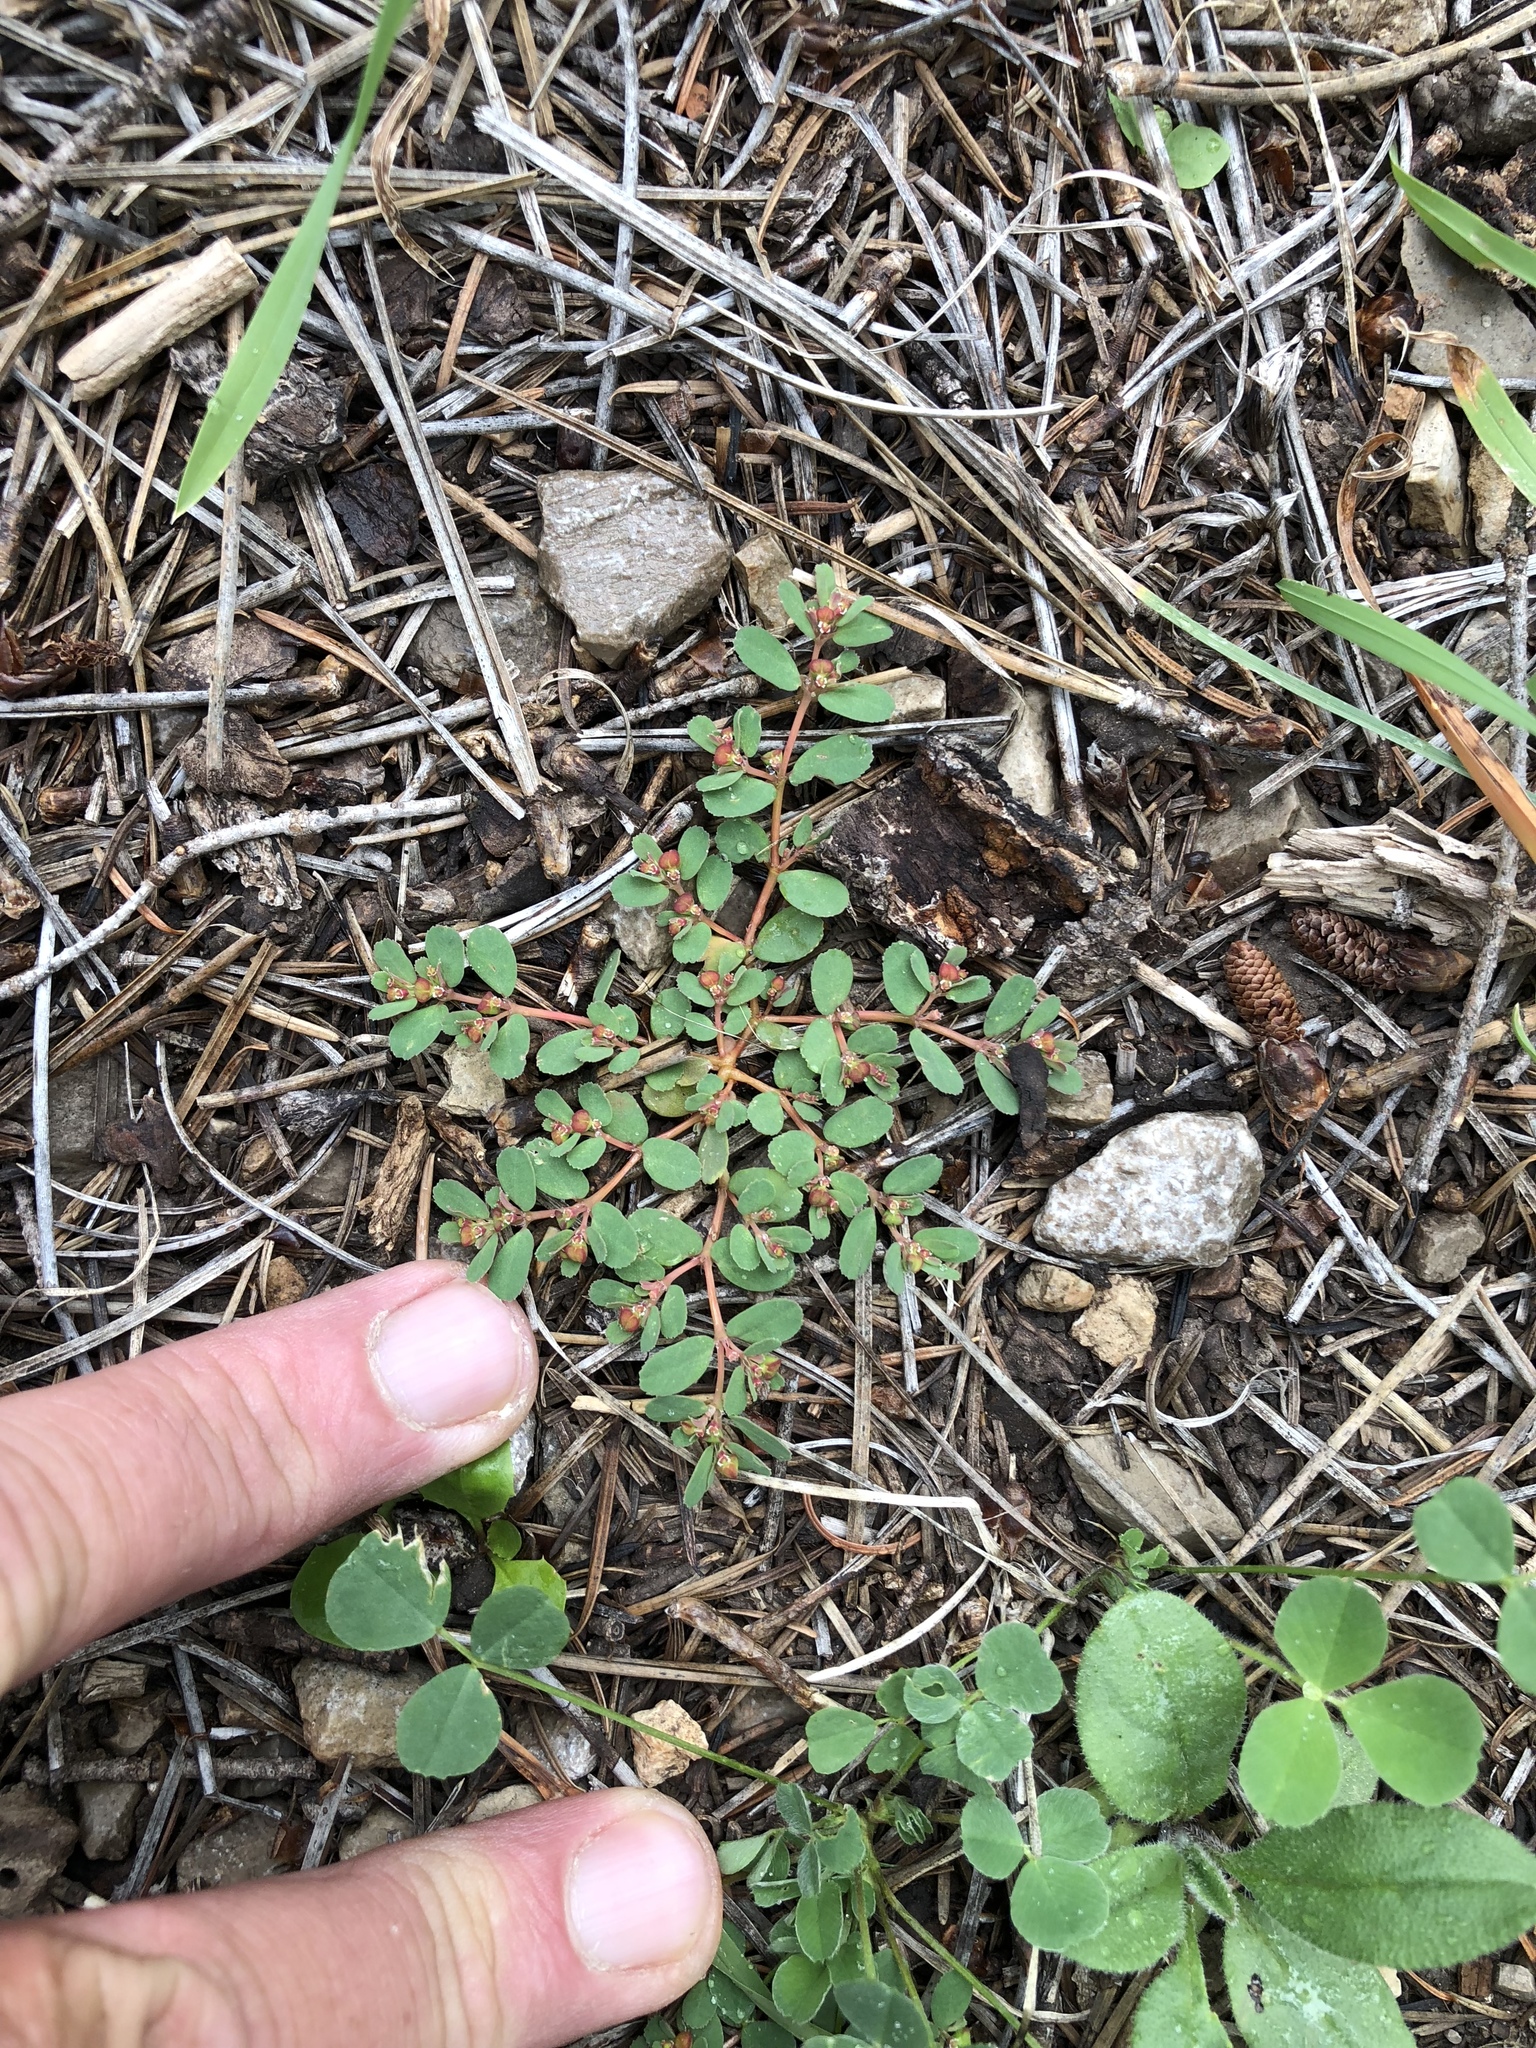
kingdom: Plantae
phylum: Tracheophyta
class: Magnoliopsida
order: Malpighiales
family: Euphorbiaceae
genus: Euphorbia
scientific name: Euphorbia serpillifolia
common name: Thyme-leaf spurge
